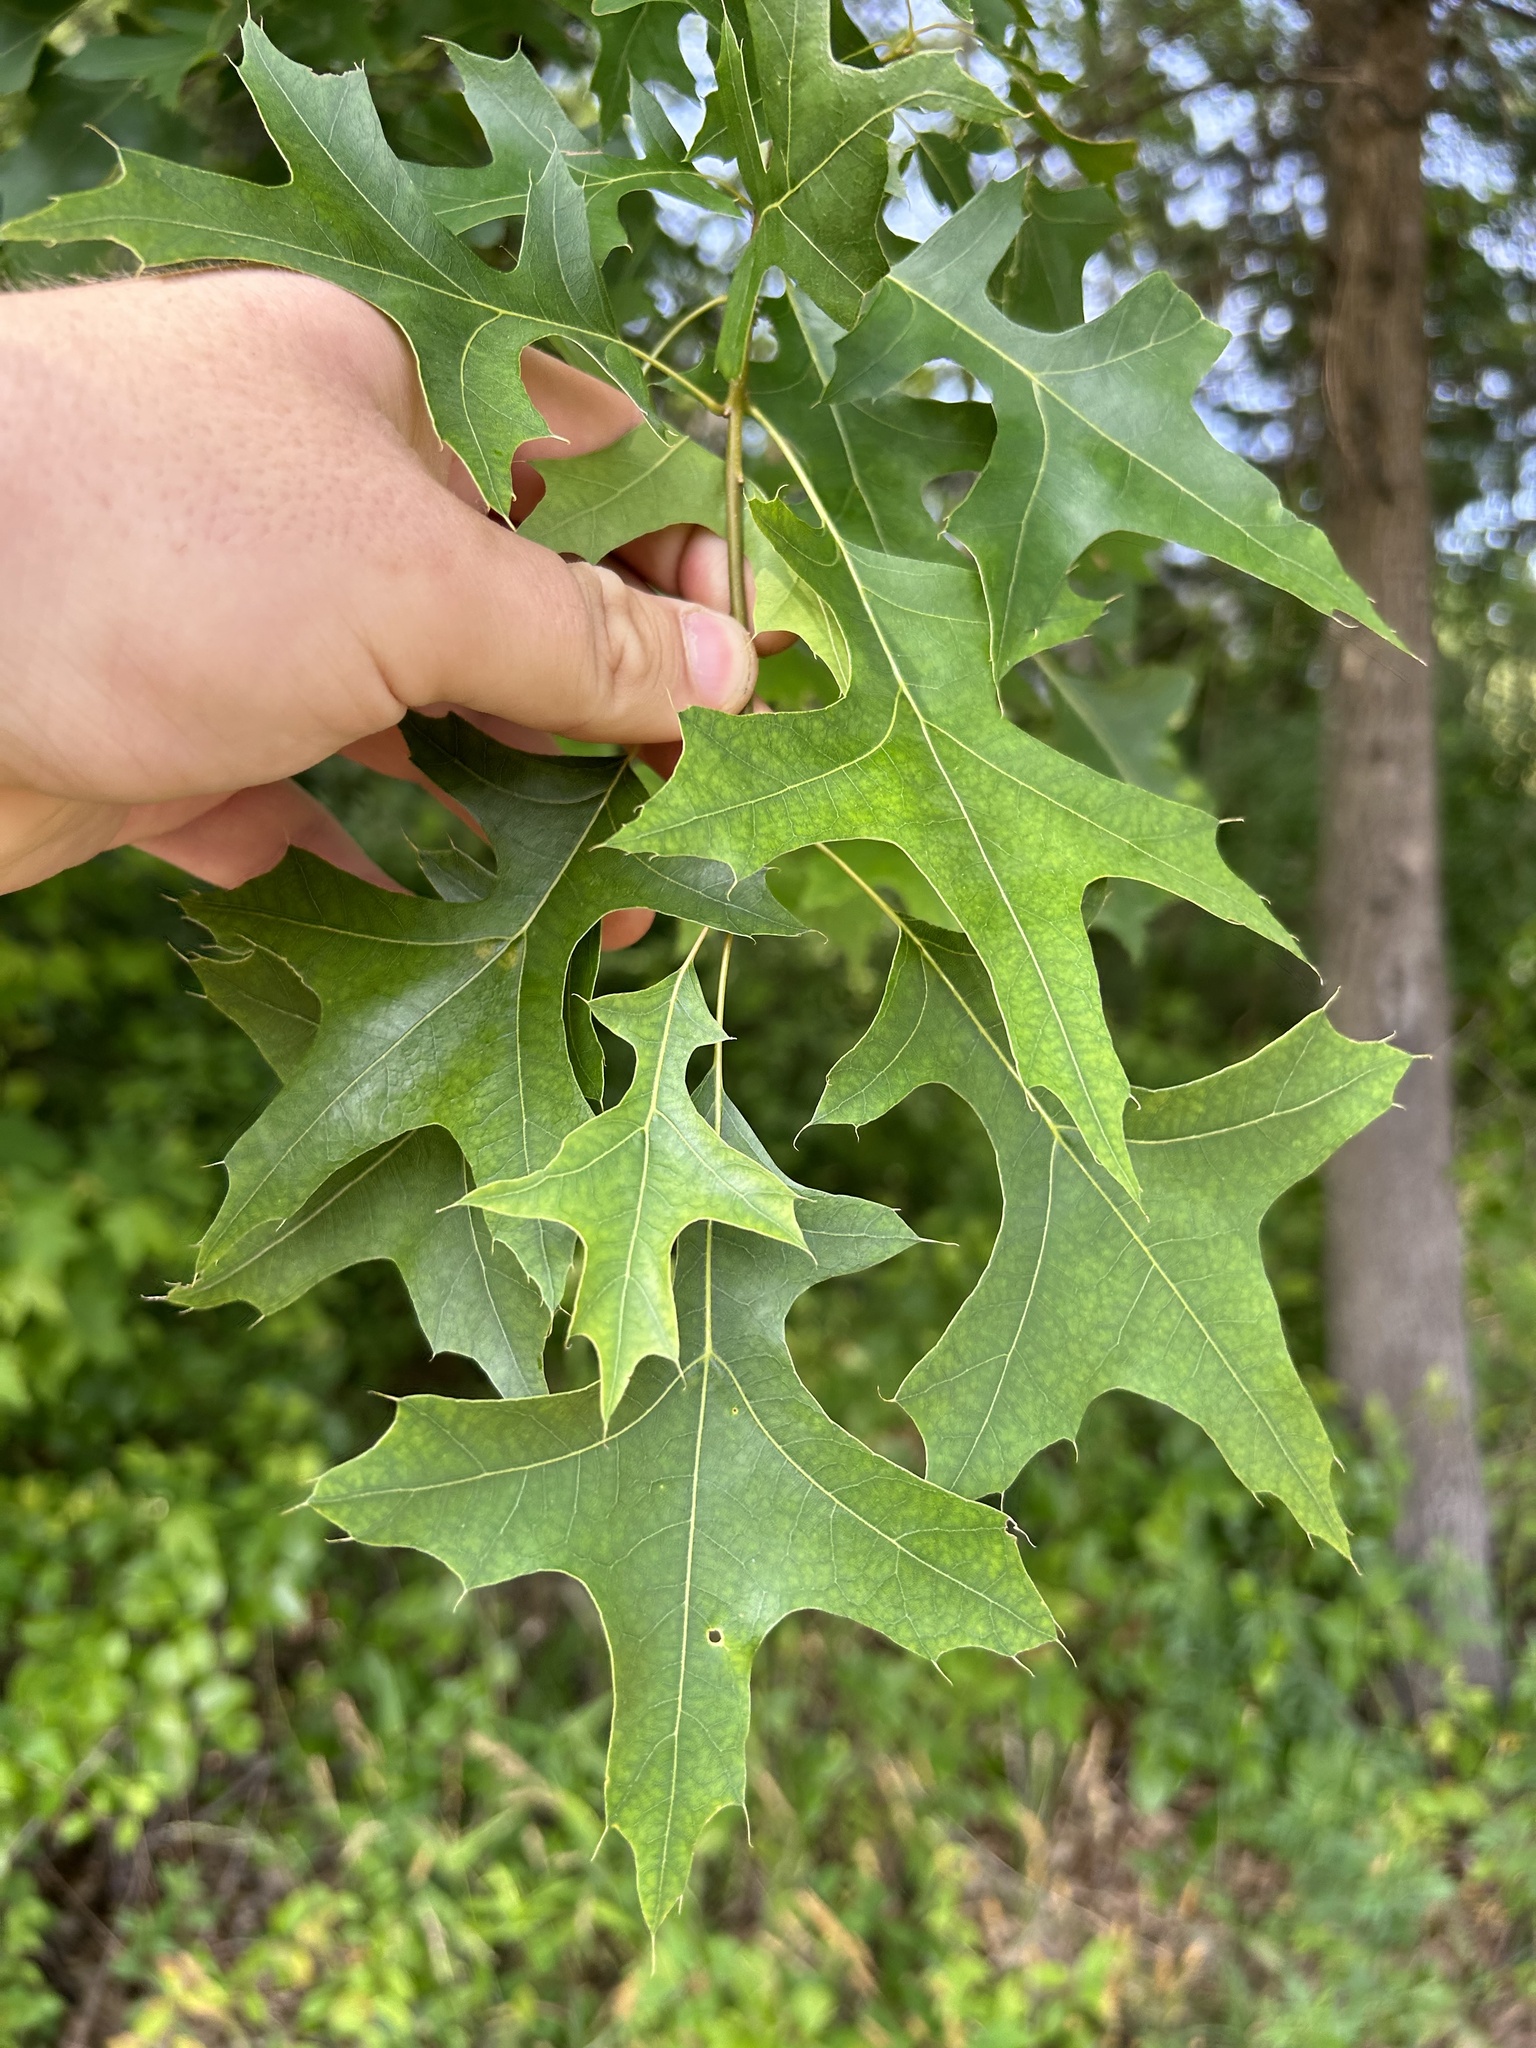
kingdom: Plantae
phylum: Tracheophyta
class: Magnoliopsida
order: Fagales
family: Fagaceae
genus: Quercus
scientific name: Quercus palustris
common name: Pin oak
